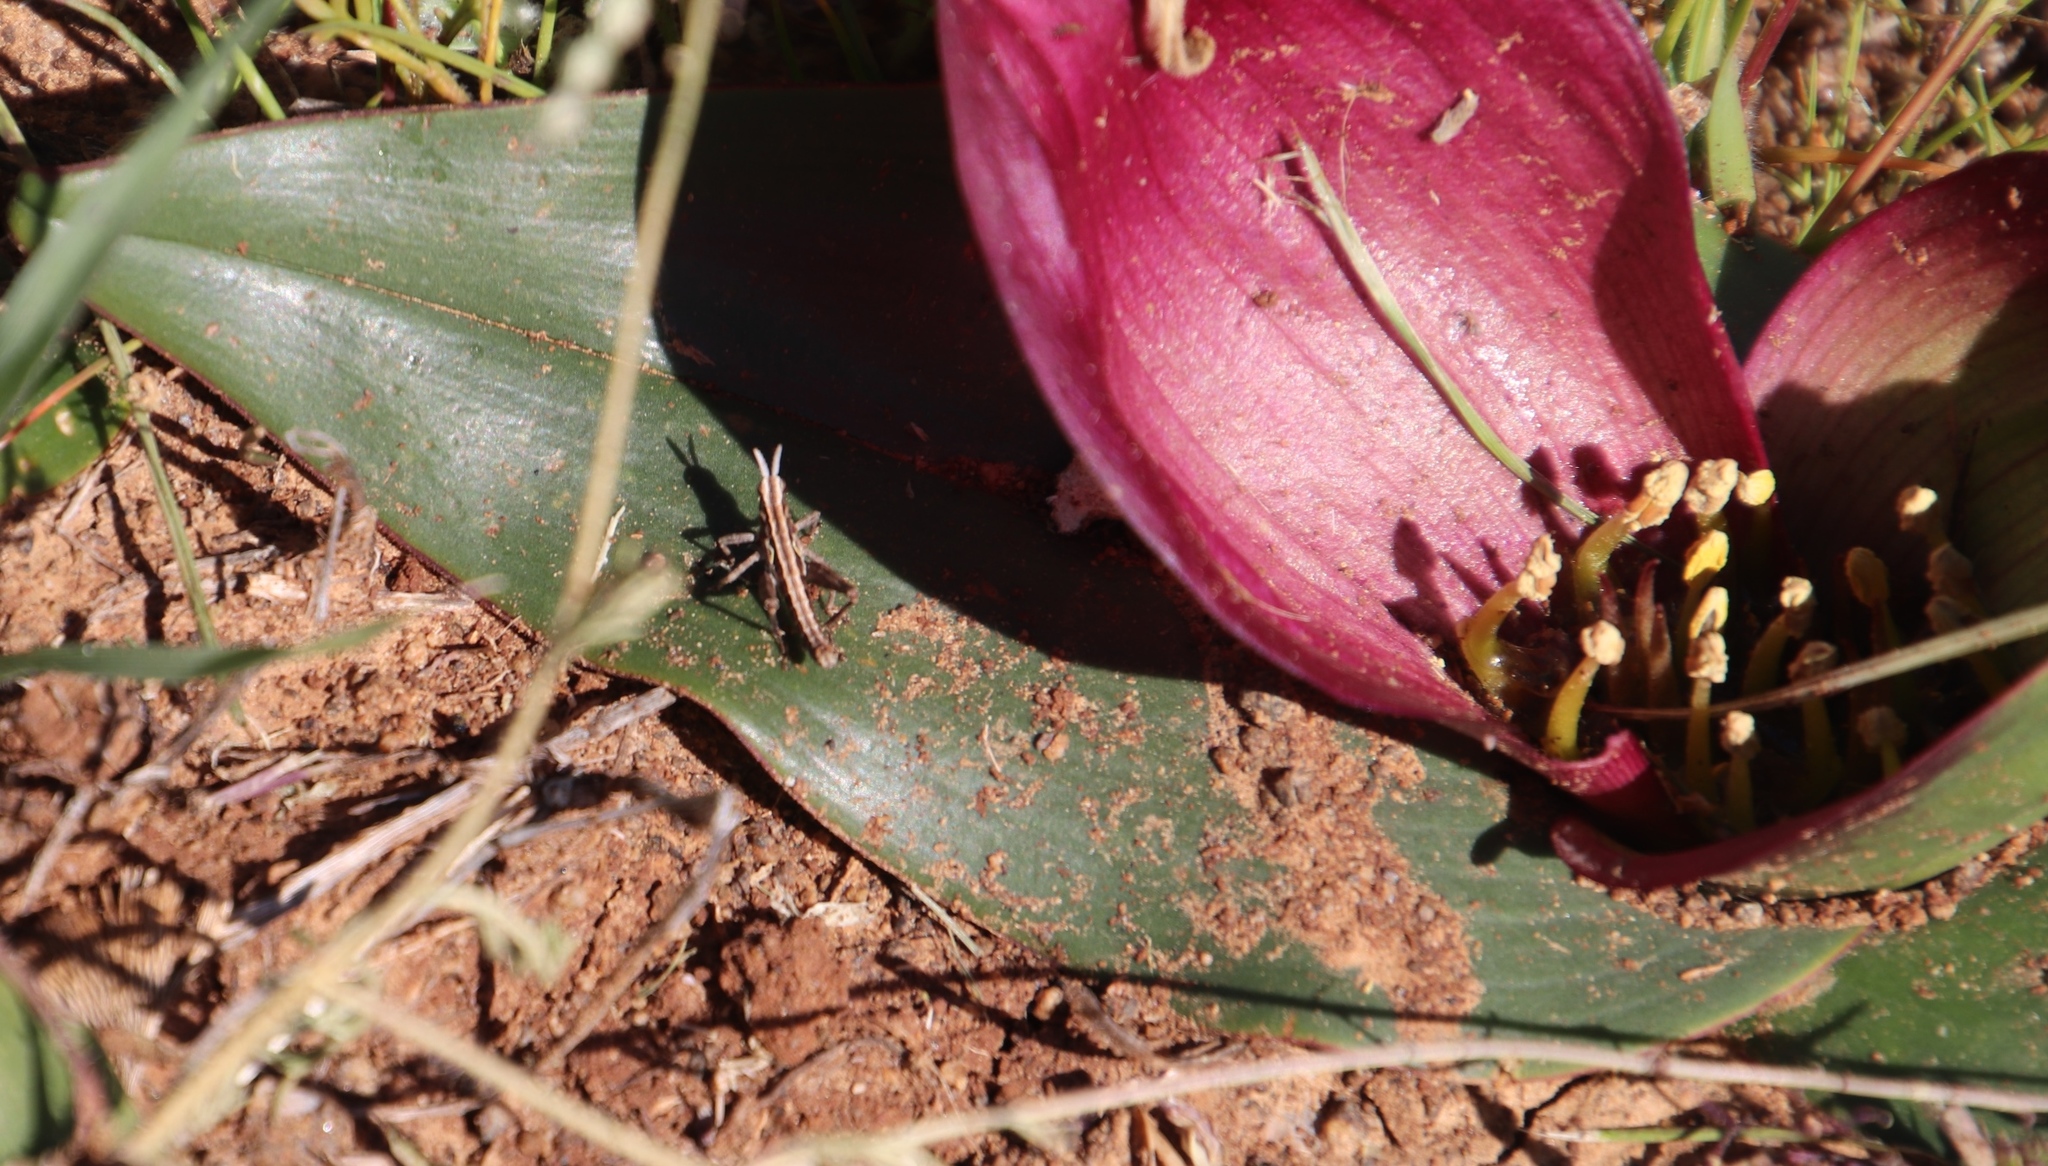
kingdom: Plantae
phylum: Tracheophyta
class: Liliopsida
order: Liliales
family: Colchicaceae
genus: Colchicum
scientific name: Colchicum burchellii
